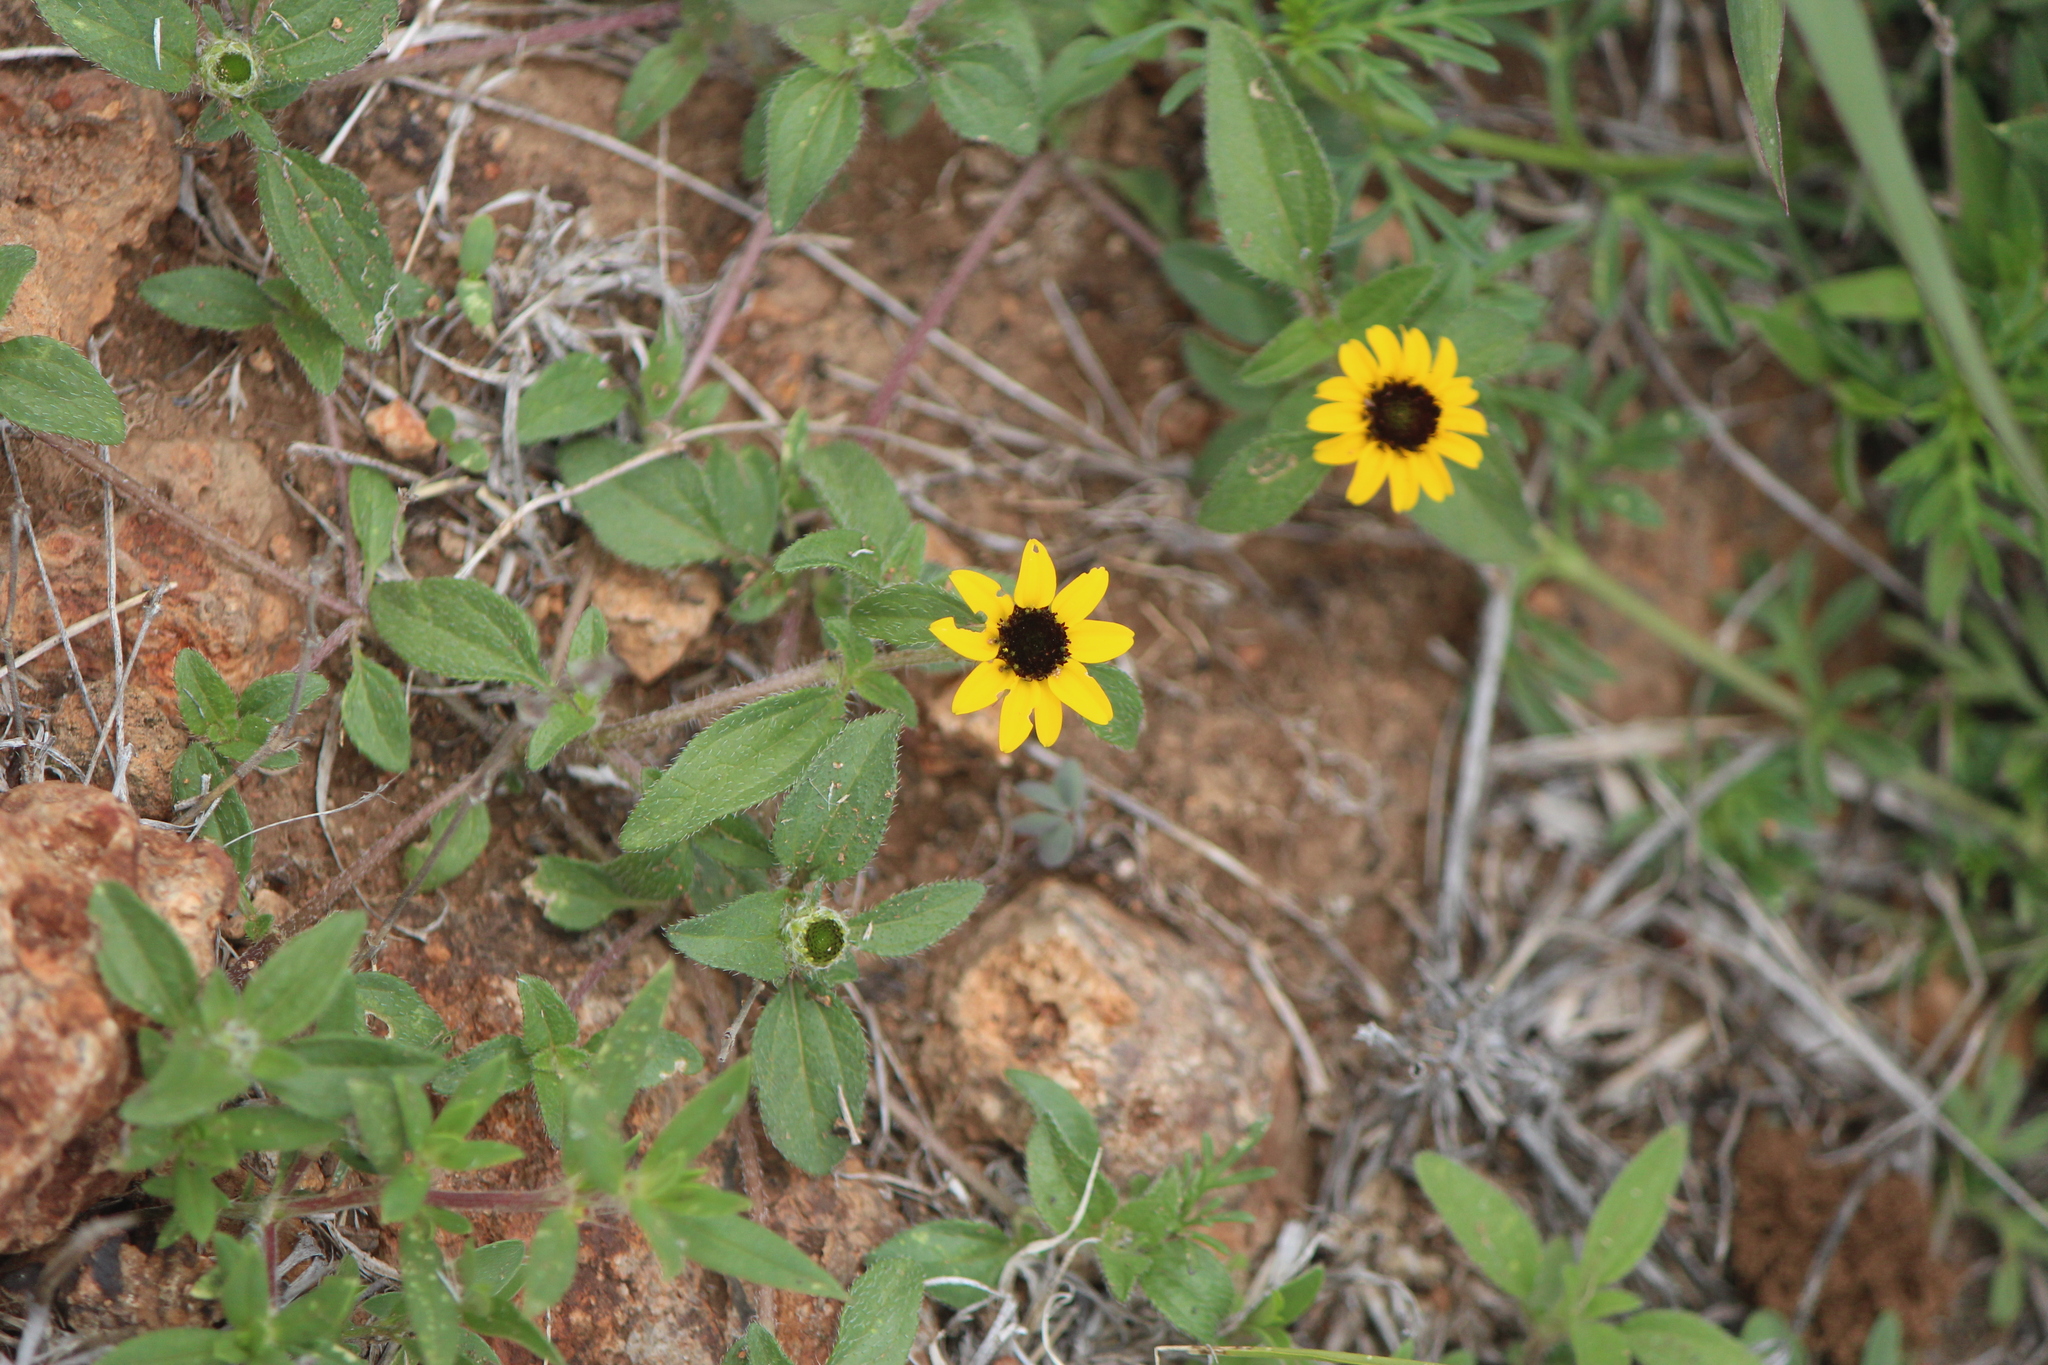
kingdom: Plantae
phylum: Tracheophyta
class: Magnoliopsida
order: Asterales
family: Asteraceae
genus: Sanvitalia
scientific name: Sanvitalia procumbens
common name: Mexican creeping zinnia
